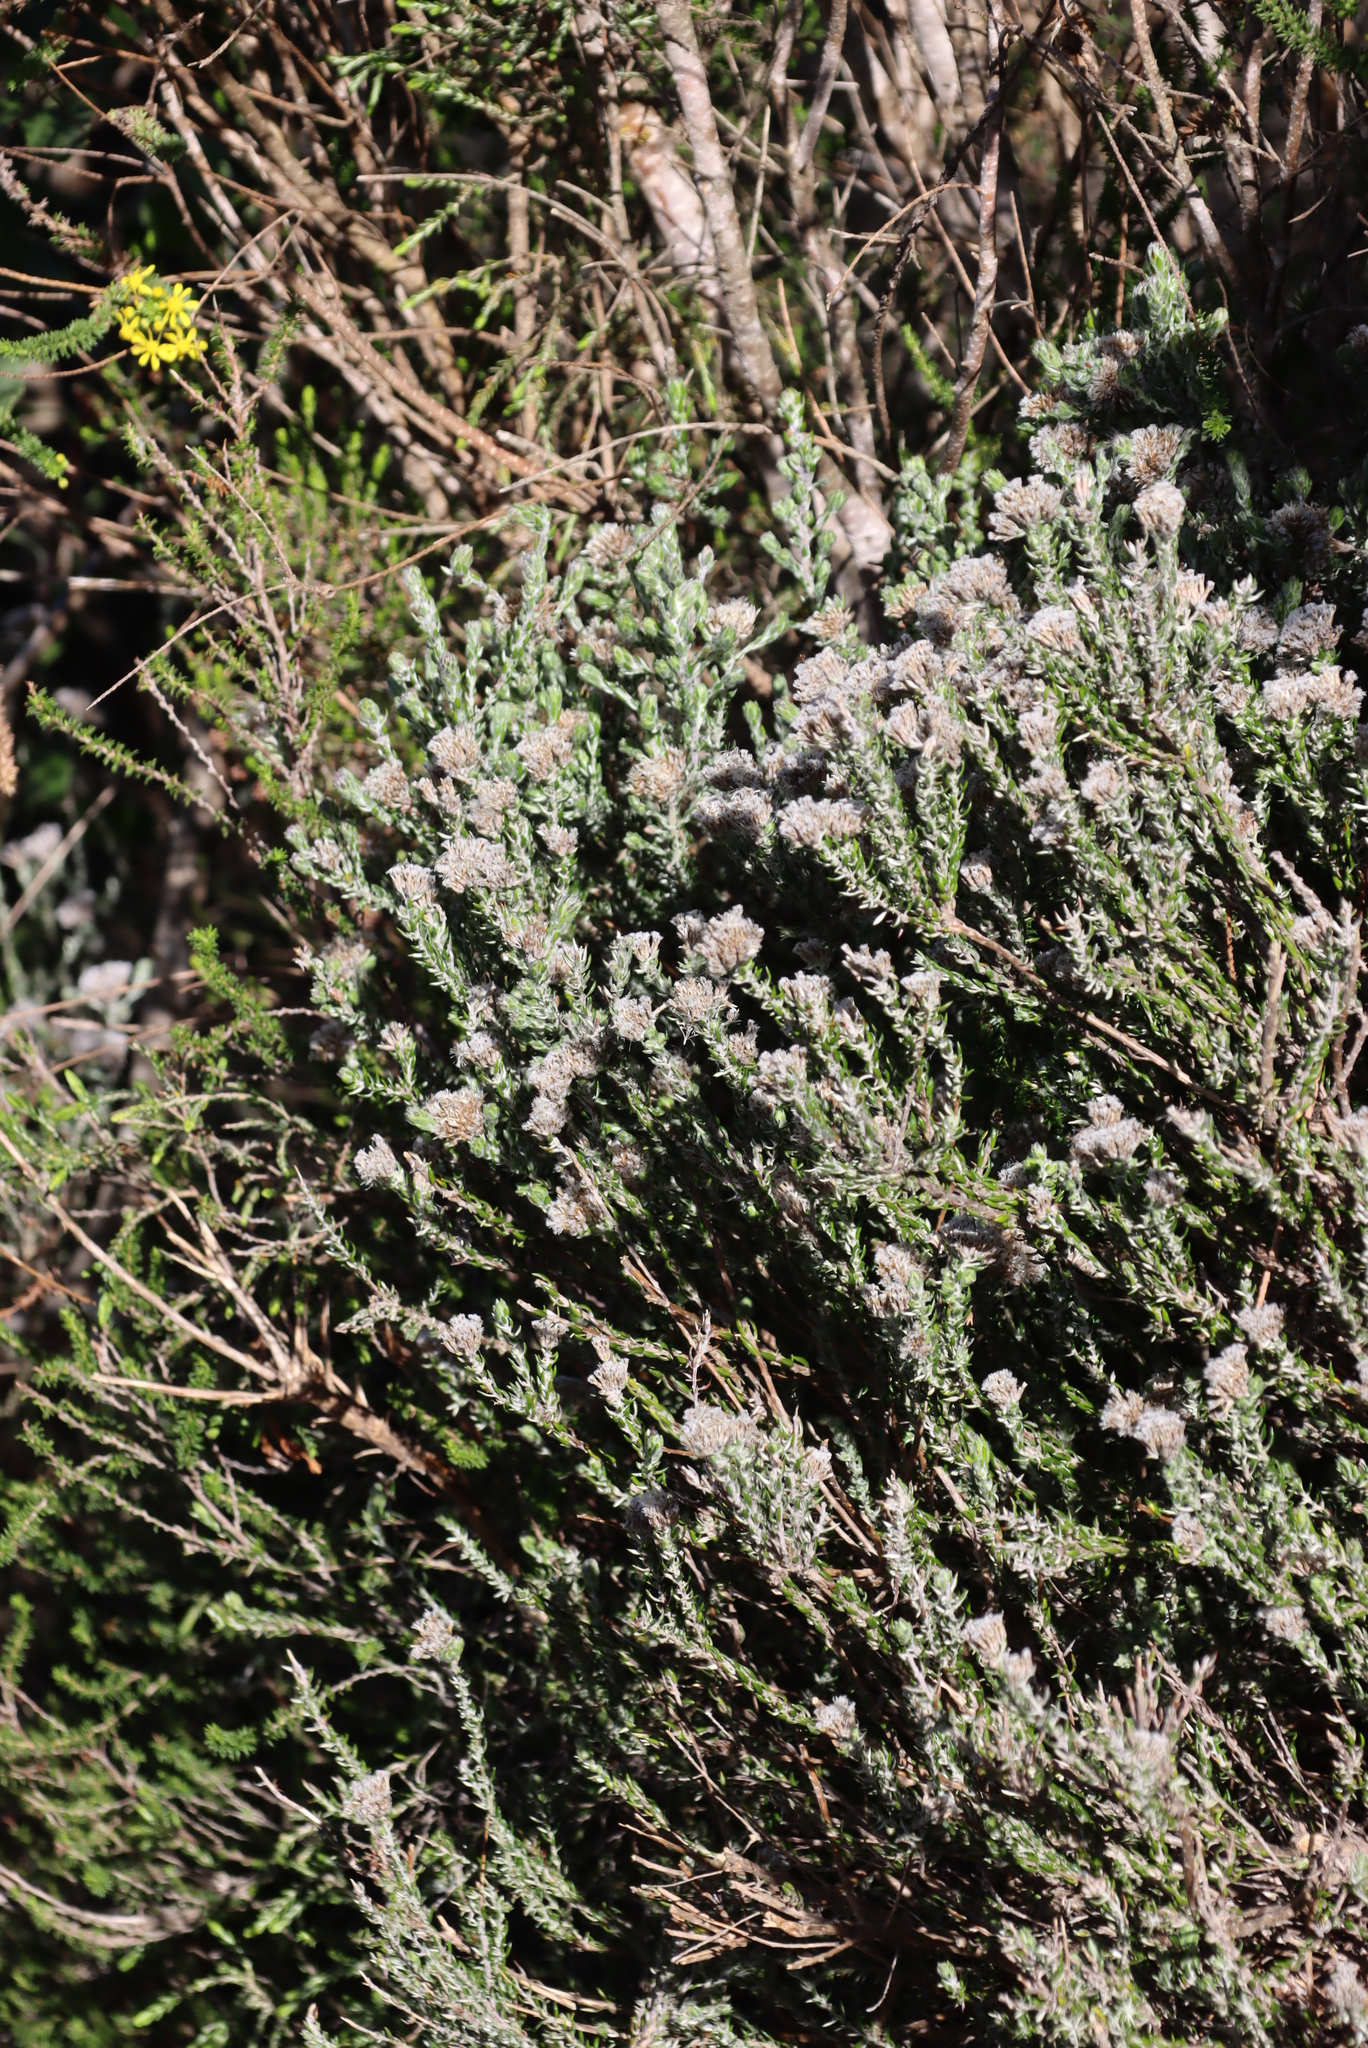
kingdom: Plantae
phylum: Tracheophyta
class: Magnoliopsida
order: Asterales
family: Asteraceae
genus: Metalasia
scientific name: Metalasia pungens
